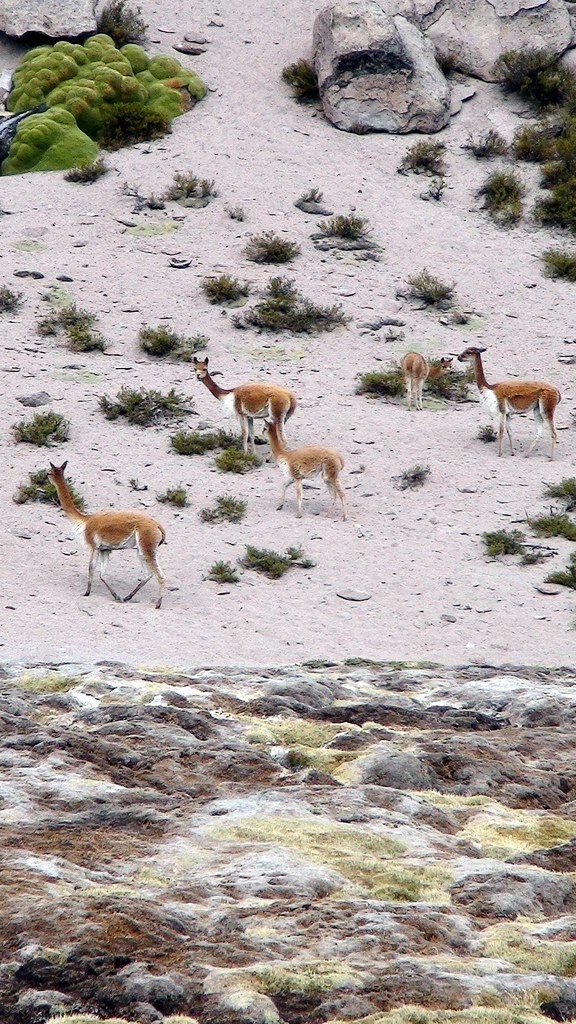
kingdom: Animalia
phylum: Chordata
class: Mammalia
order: Artiodactyla
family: Camelidae
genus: Vicugna
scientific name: Vicugna vicugna
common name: Vicugna
